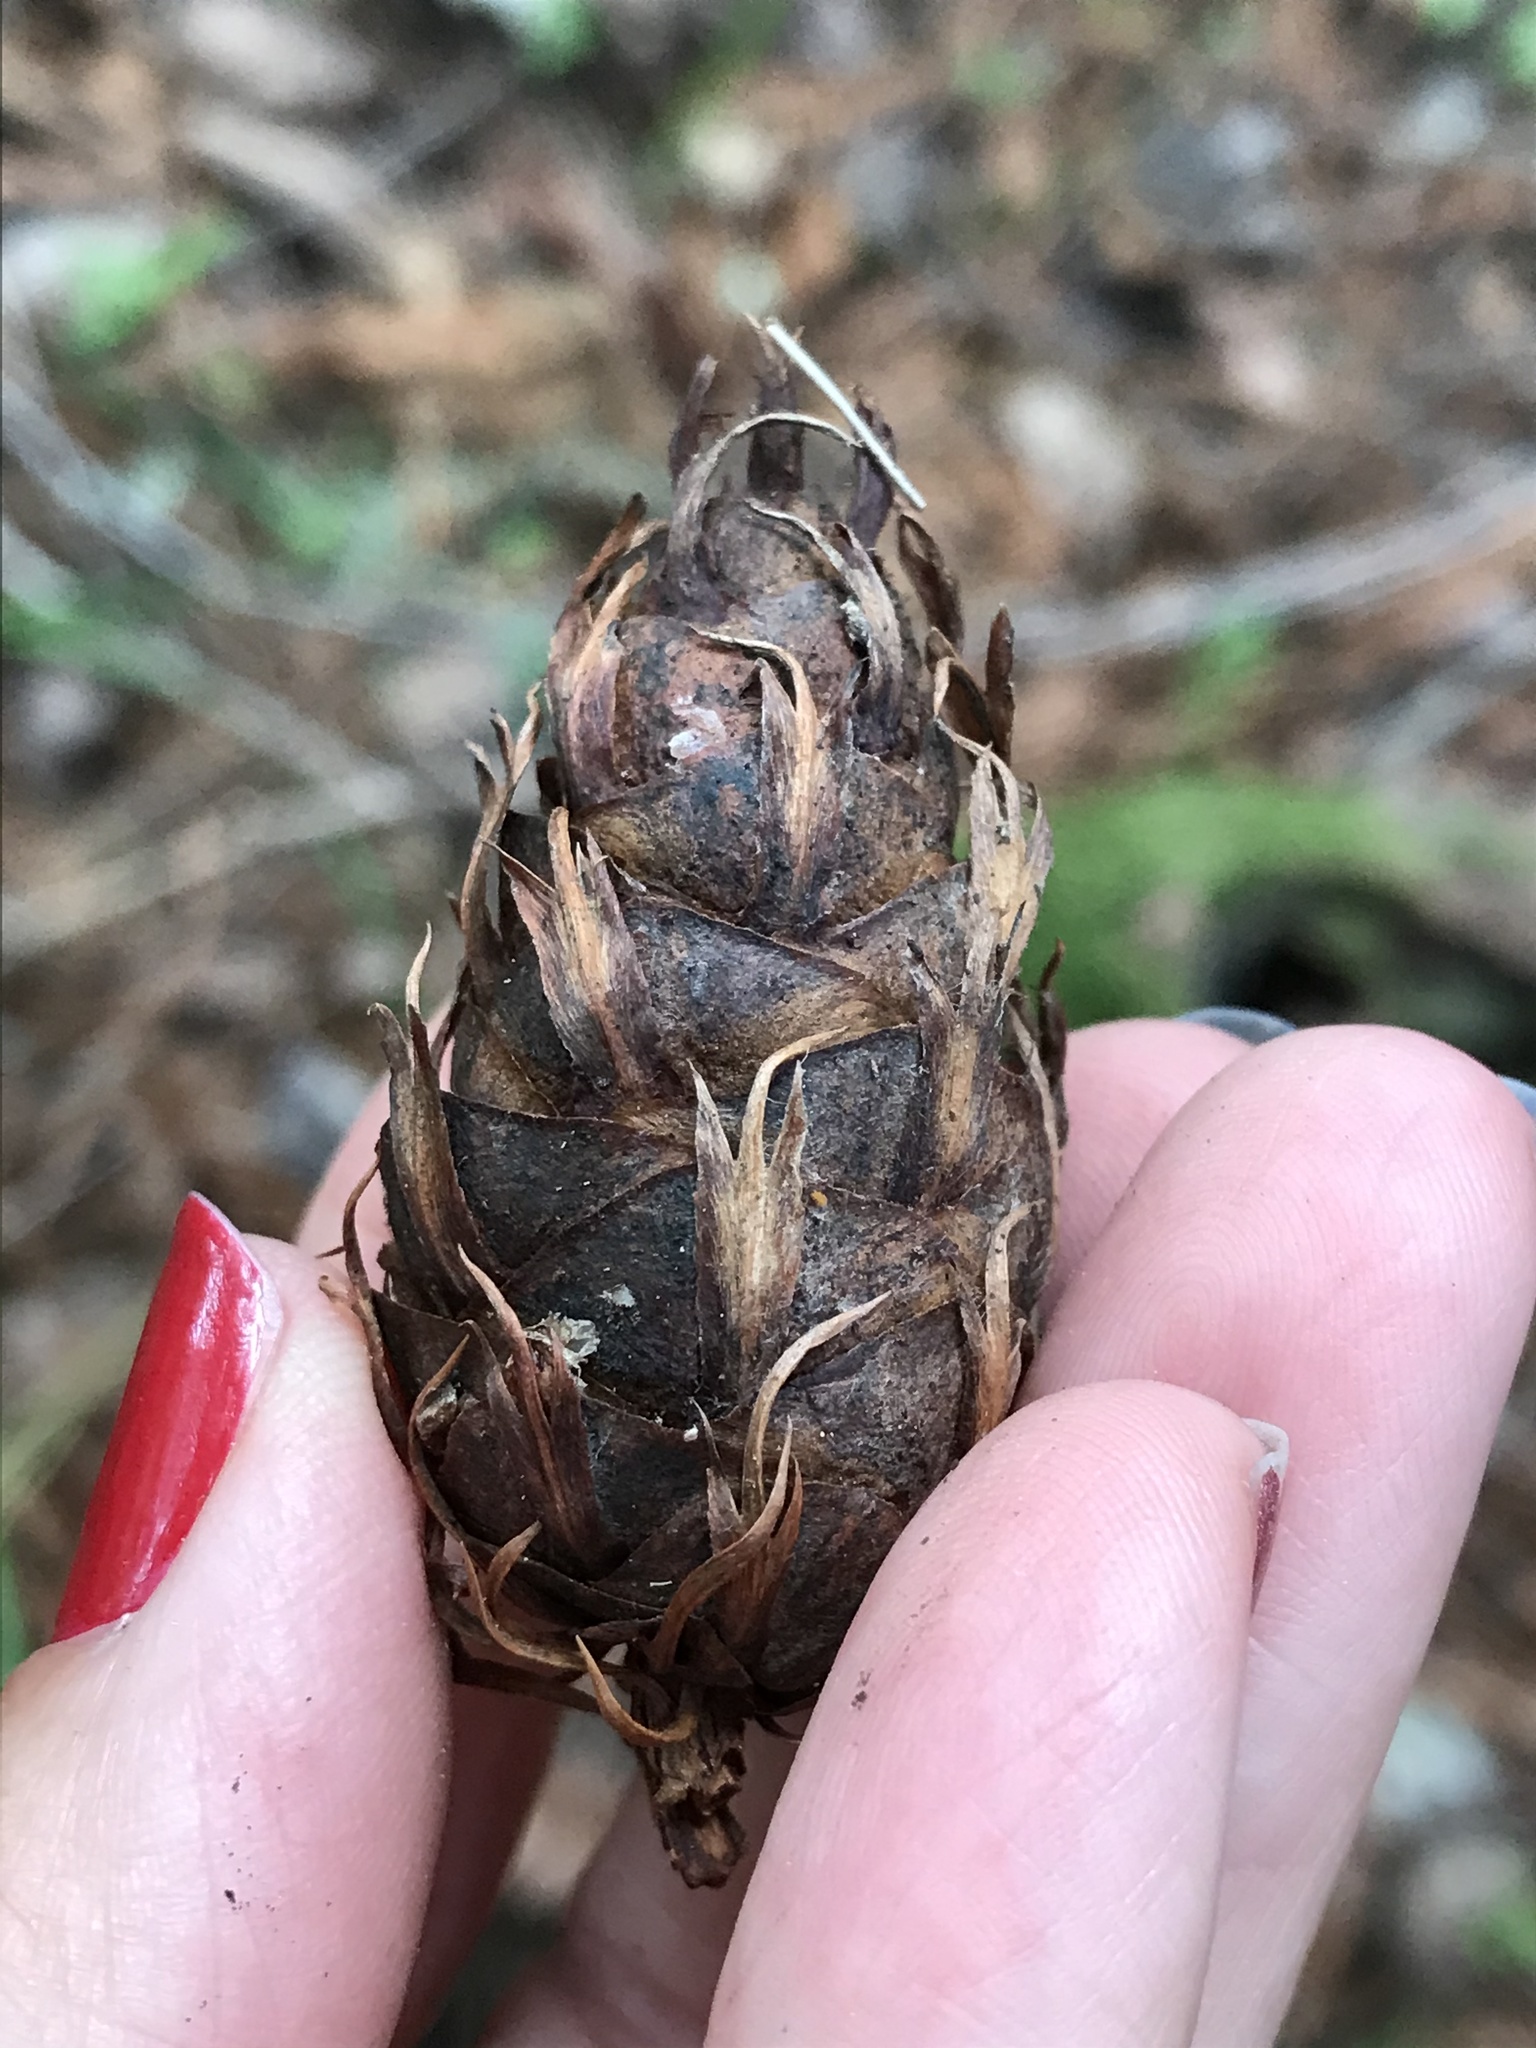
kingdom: Plantae
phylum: Tracheophyta
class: Pinopsida
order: Pinales
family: Pinaceae
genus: Pseudotsuga
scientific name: Pseudotsuga menziesii
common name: Douglas fir
